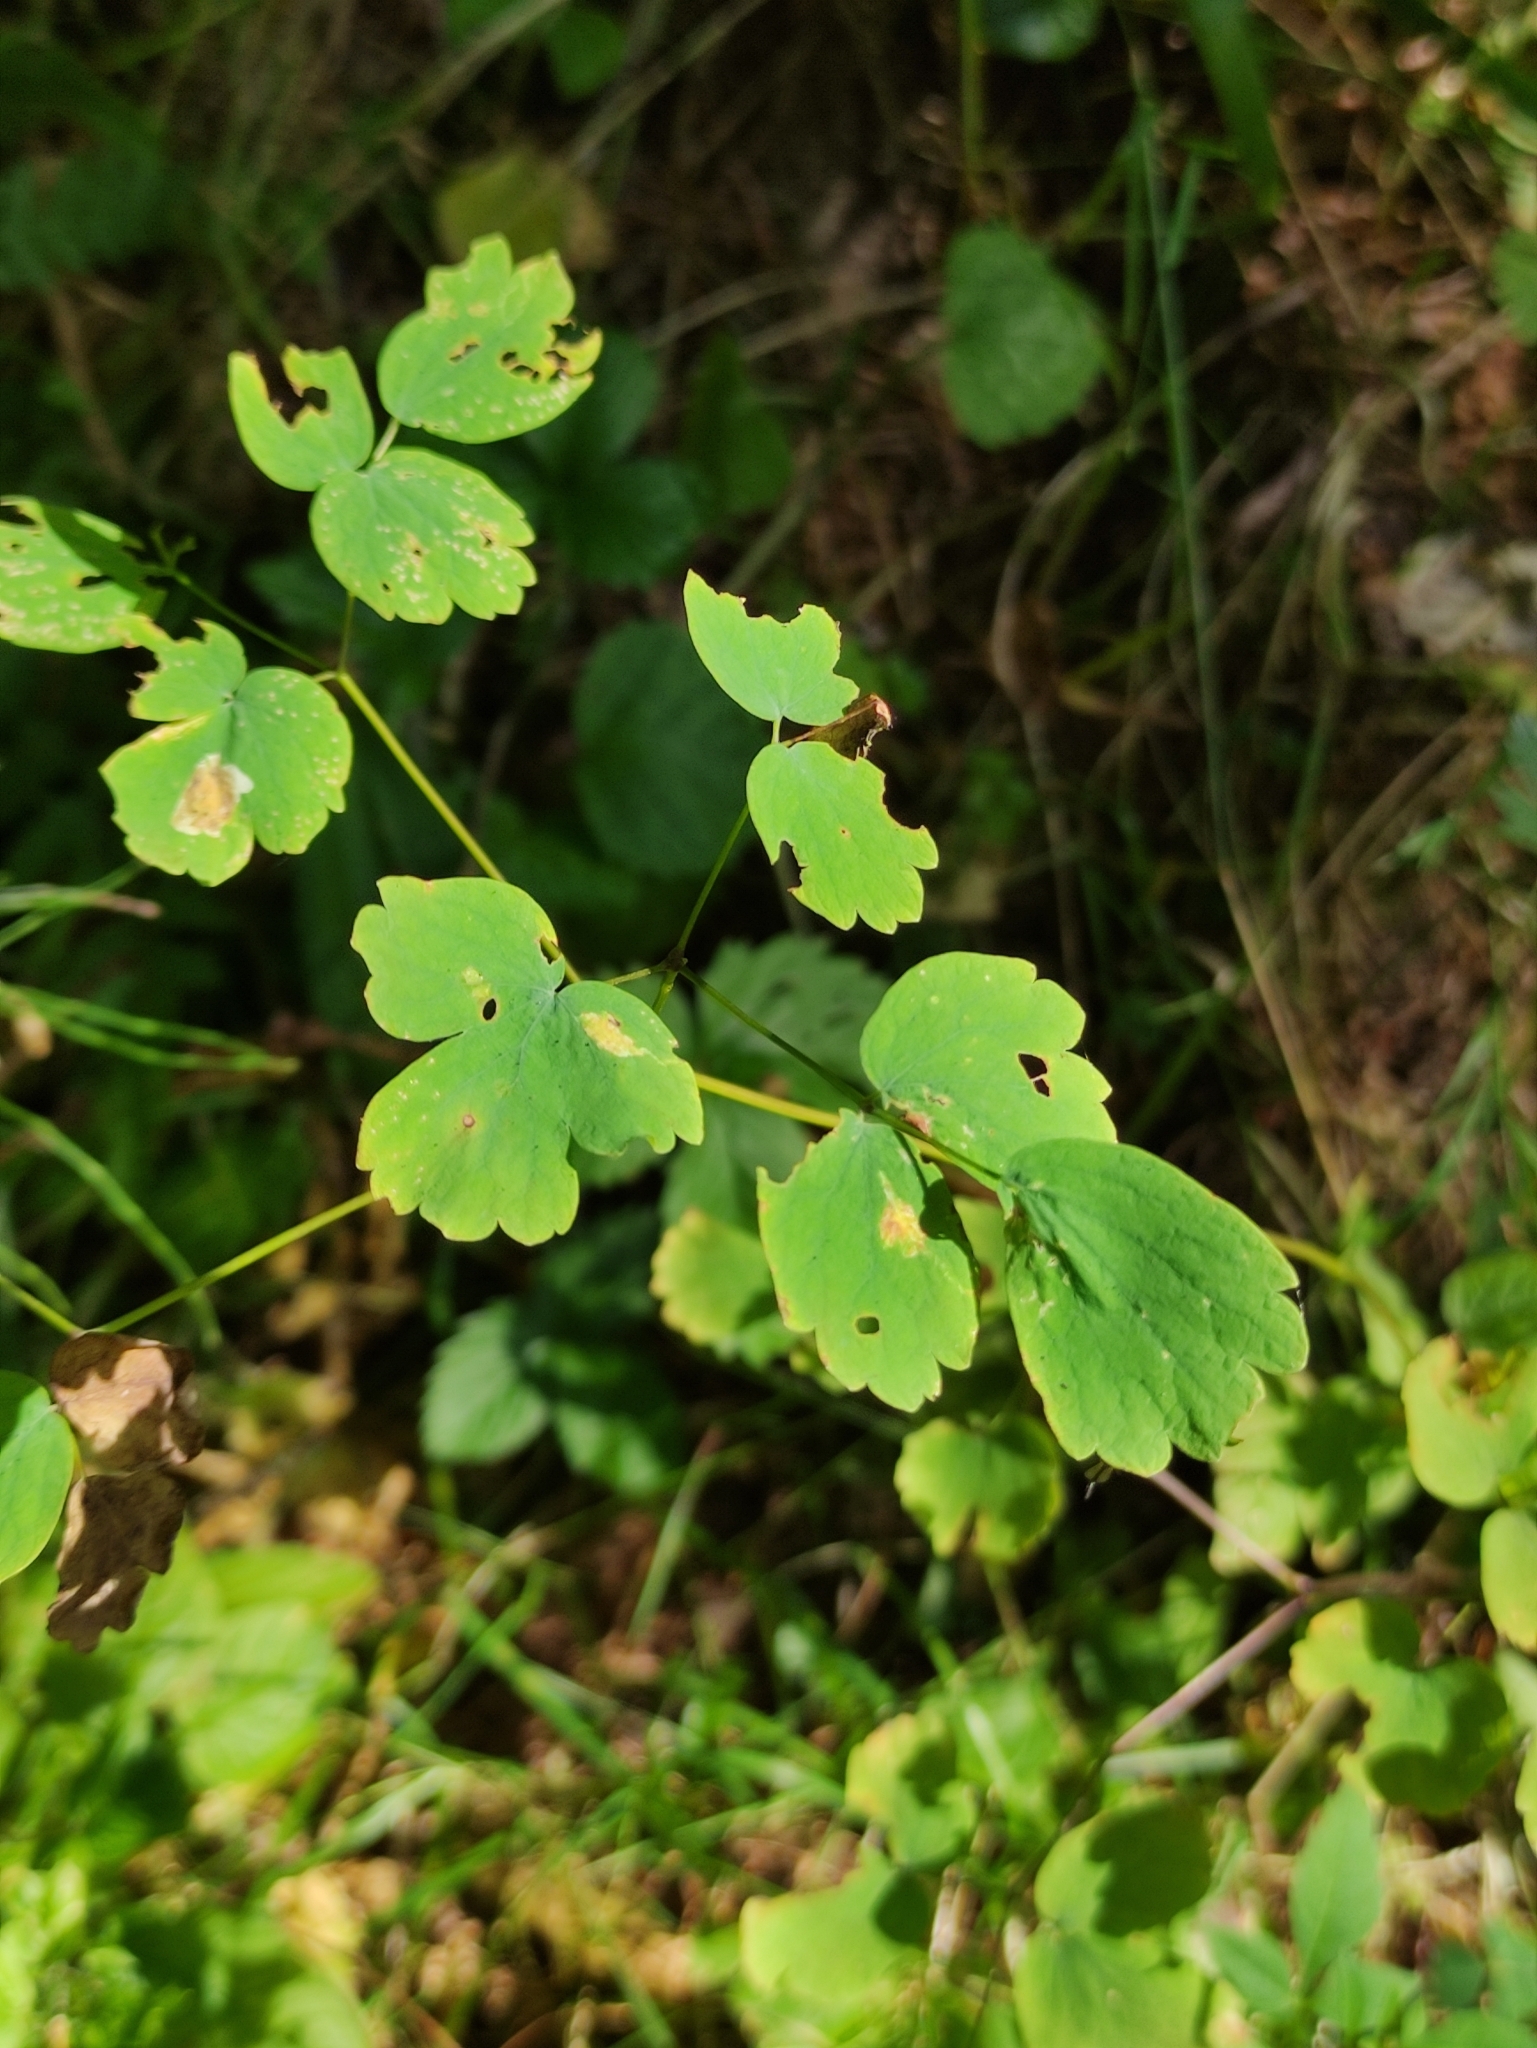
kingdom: Plantae
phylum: Tracheophyta
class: Magnoliopsida
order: Ranunculales
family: Ranunculaceae
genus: Thalictrum
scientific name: Thalictrum aquilegiifolium
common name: French meadow-rue
